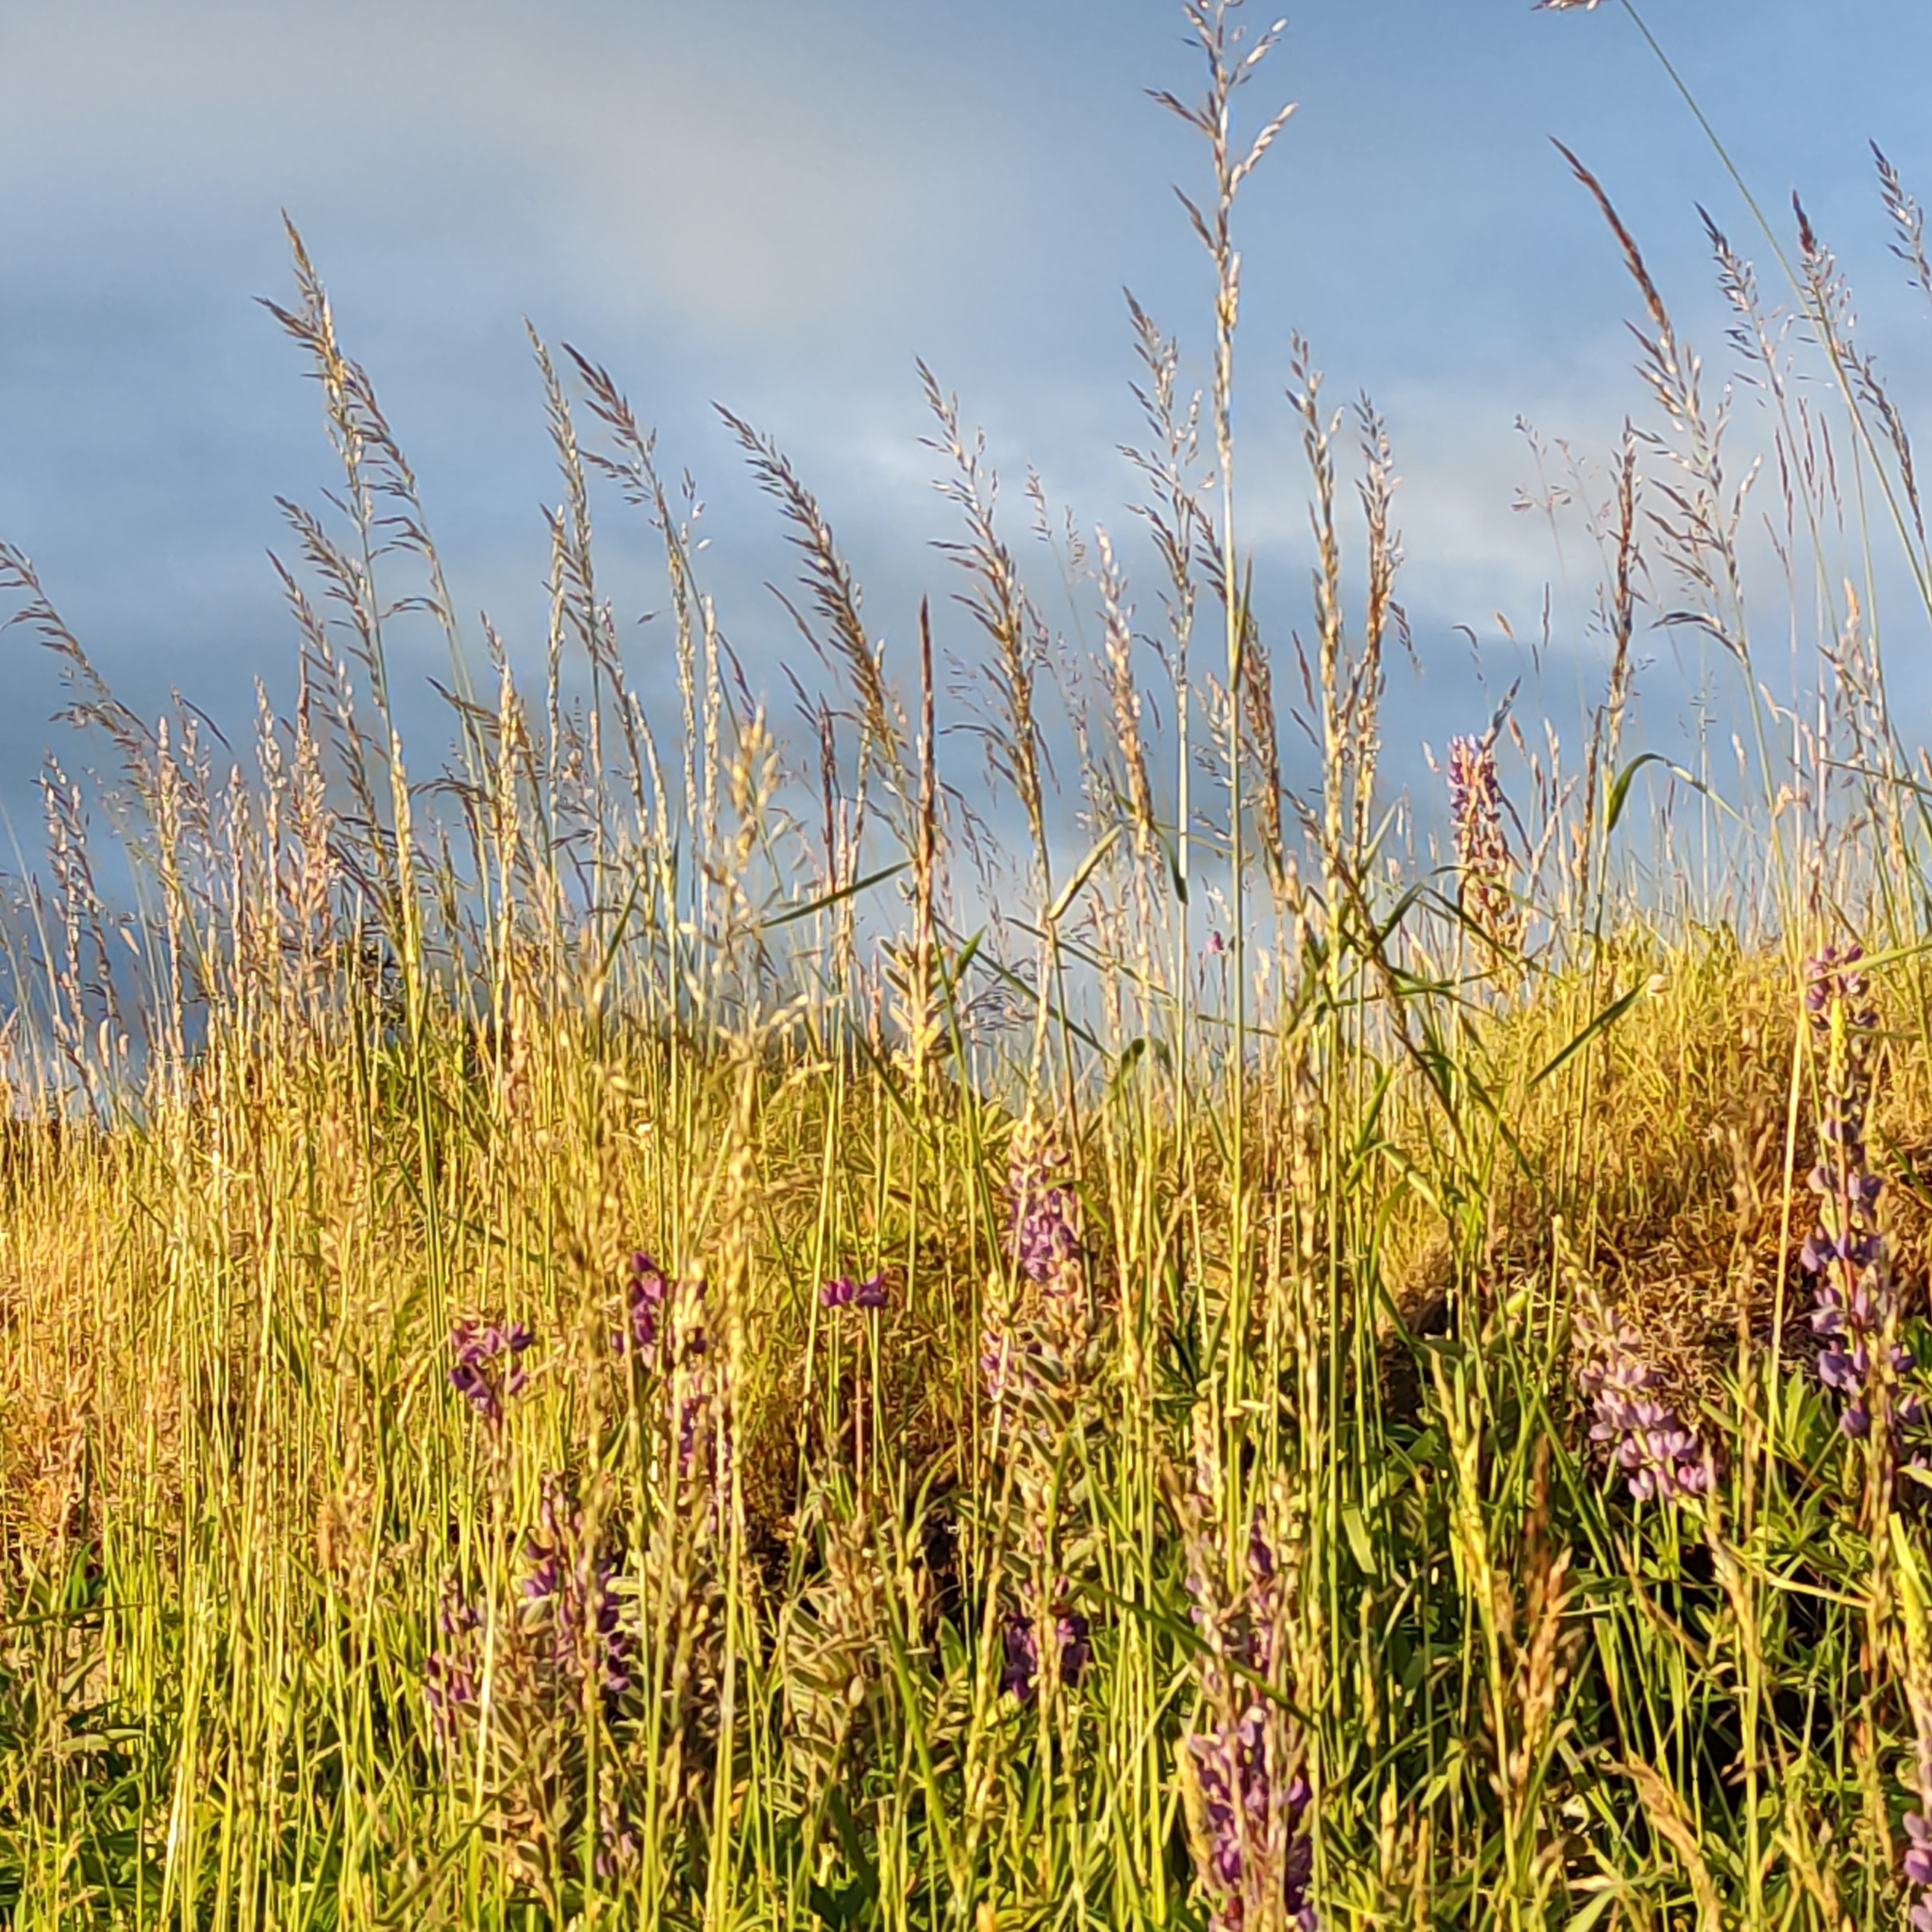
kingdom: Plantae
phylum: Tracheophyta
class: Liliopsida
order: Poales
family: Poaceae
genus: Arrhenatherum
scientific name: Arrhenatherum elatius
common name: Tall oatgrass
